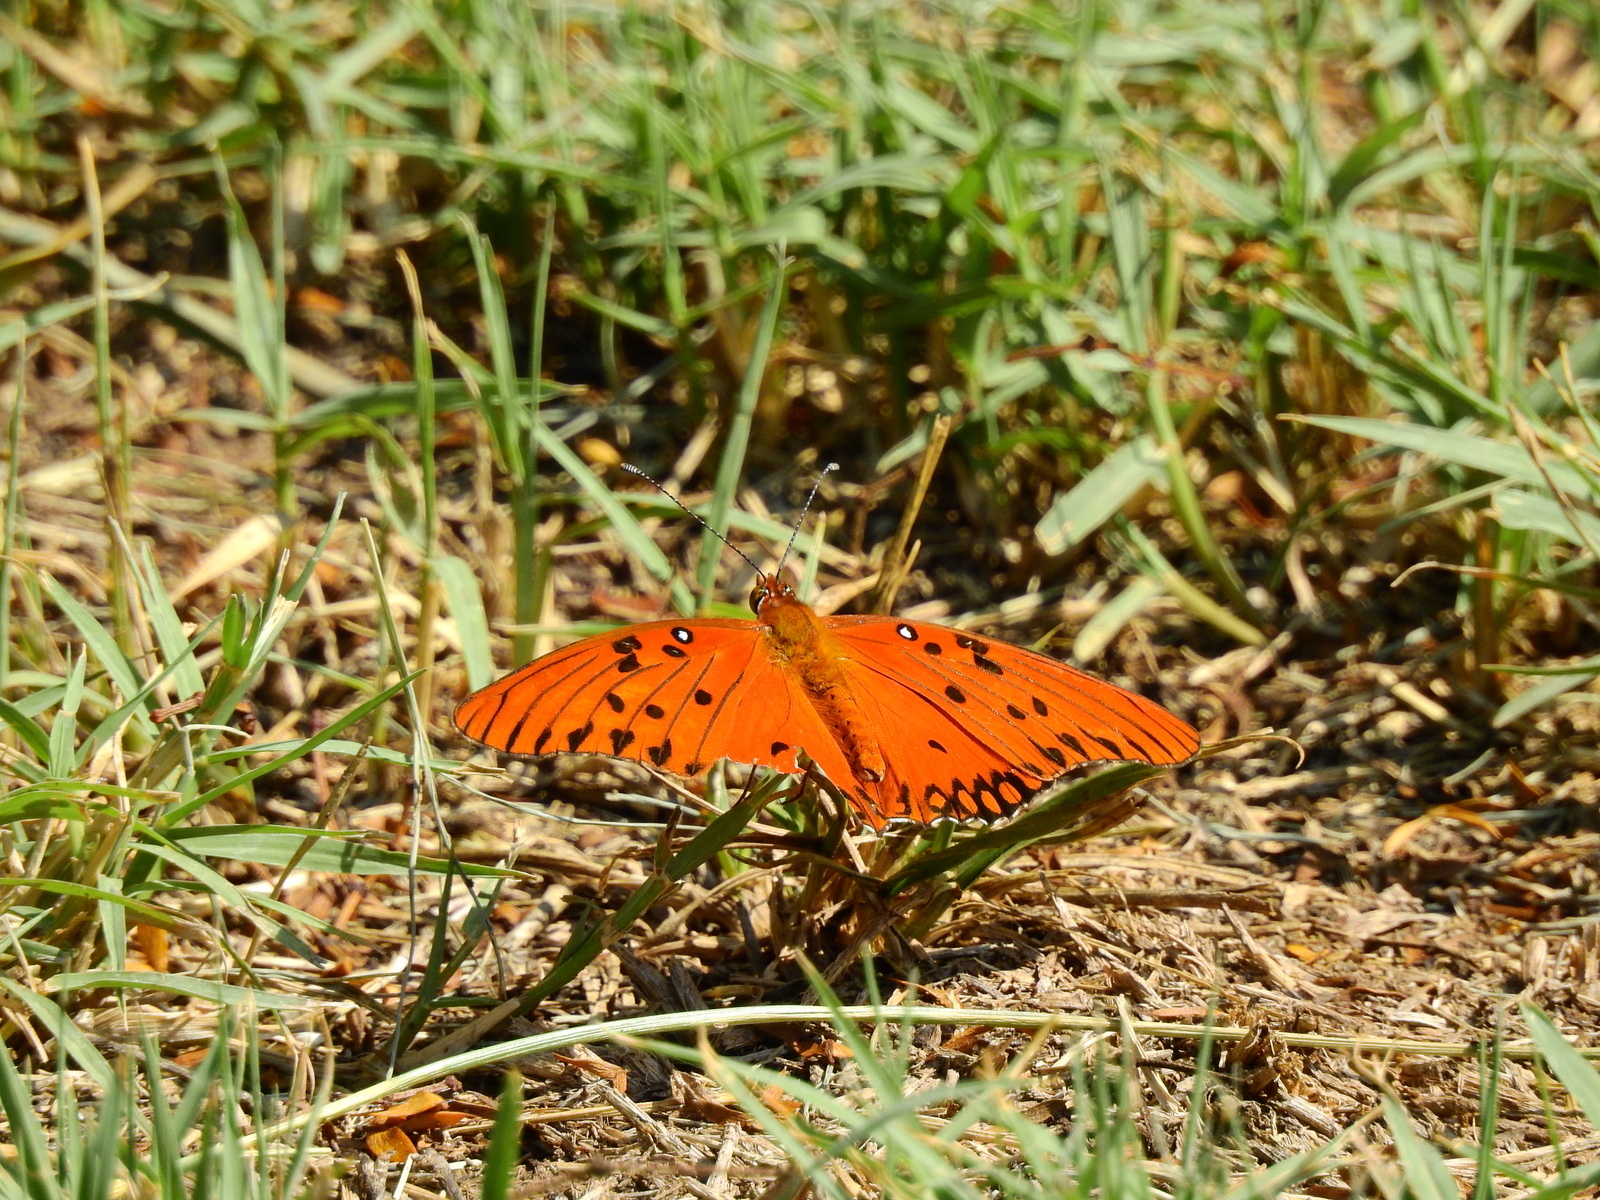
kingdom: Animalia
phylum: Arthropoda
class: Insecta
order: Lepidoptera
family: Nymphalidae
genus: Dione
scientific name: Dione vanillae
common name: Gulf fritillary
